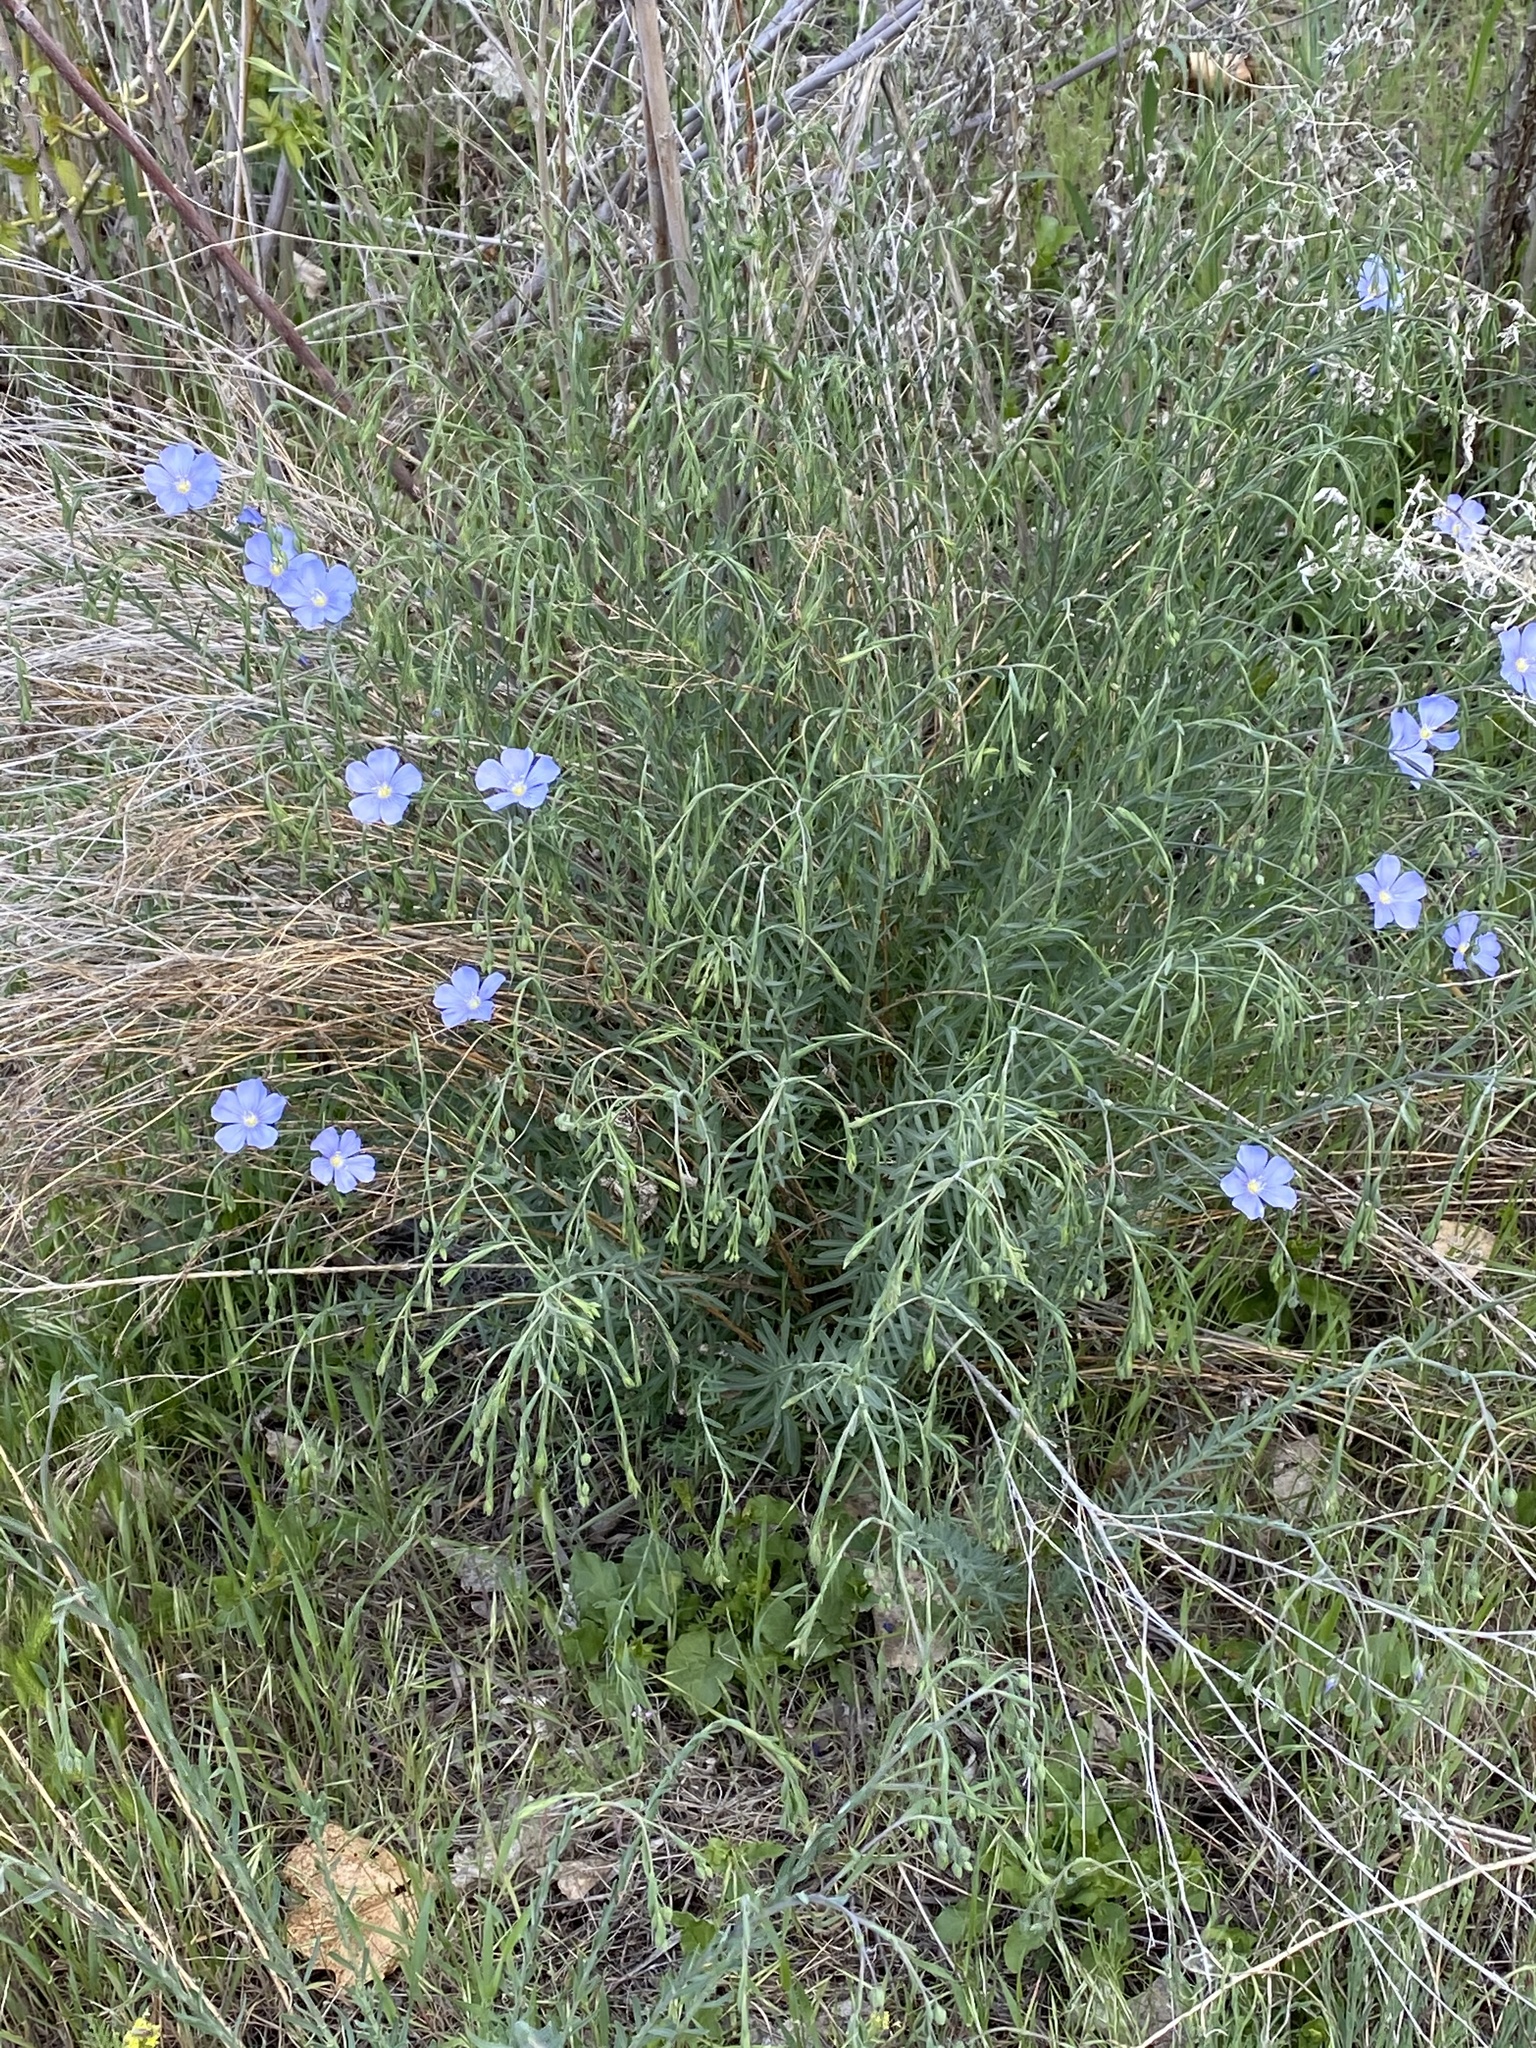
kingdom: Plantae
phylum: Tracheophyta
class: Magnoliopsida
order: Malpighiales
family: Linaceae
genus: Linum
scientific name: Linum lewisii
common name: Prairie flax
